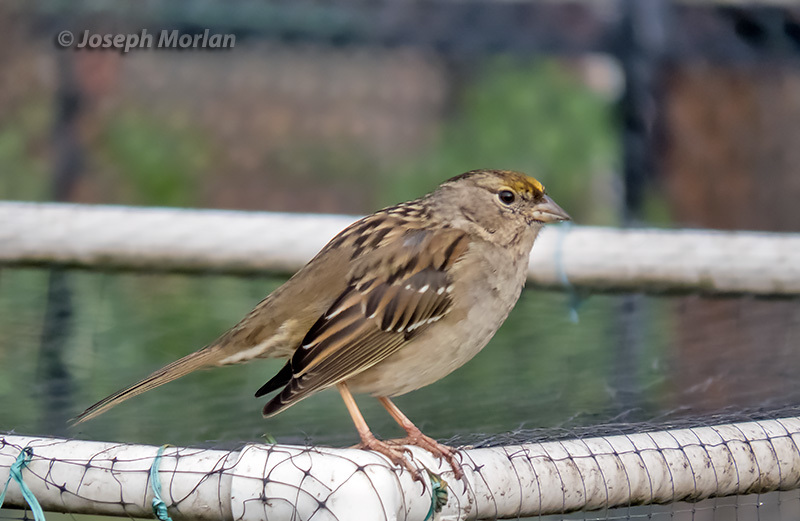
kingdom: Animalia
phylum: Chordata
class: Aves
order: Passeriformes
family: Passerellidae
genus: Zonotrichia
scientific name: Zonotrichia atricapilla
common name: Golden-crowned sparrow
